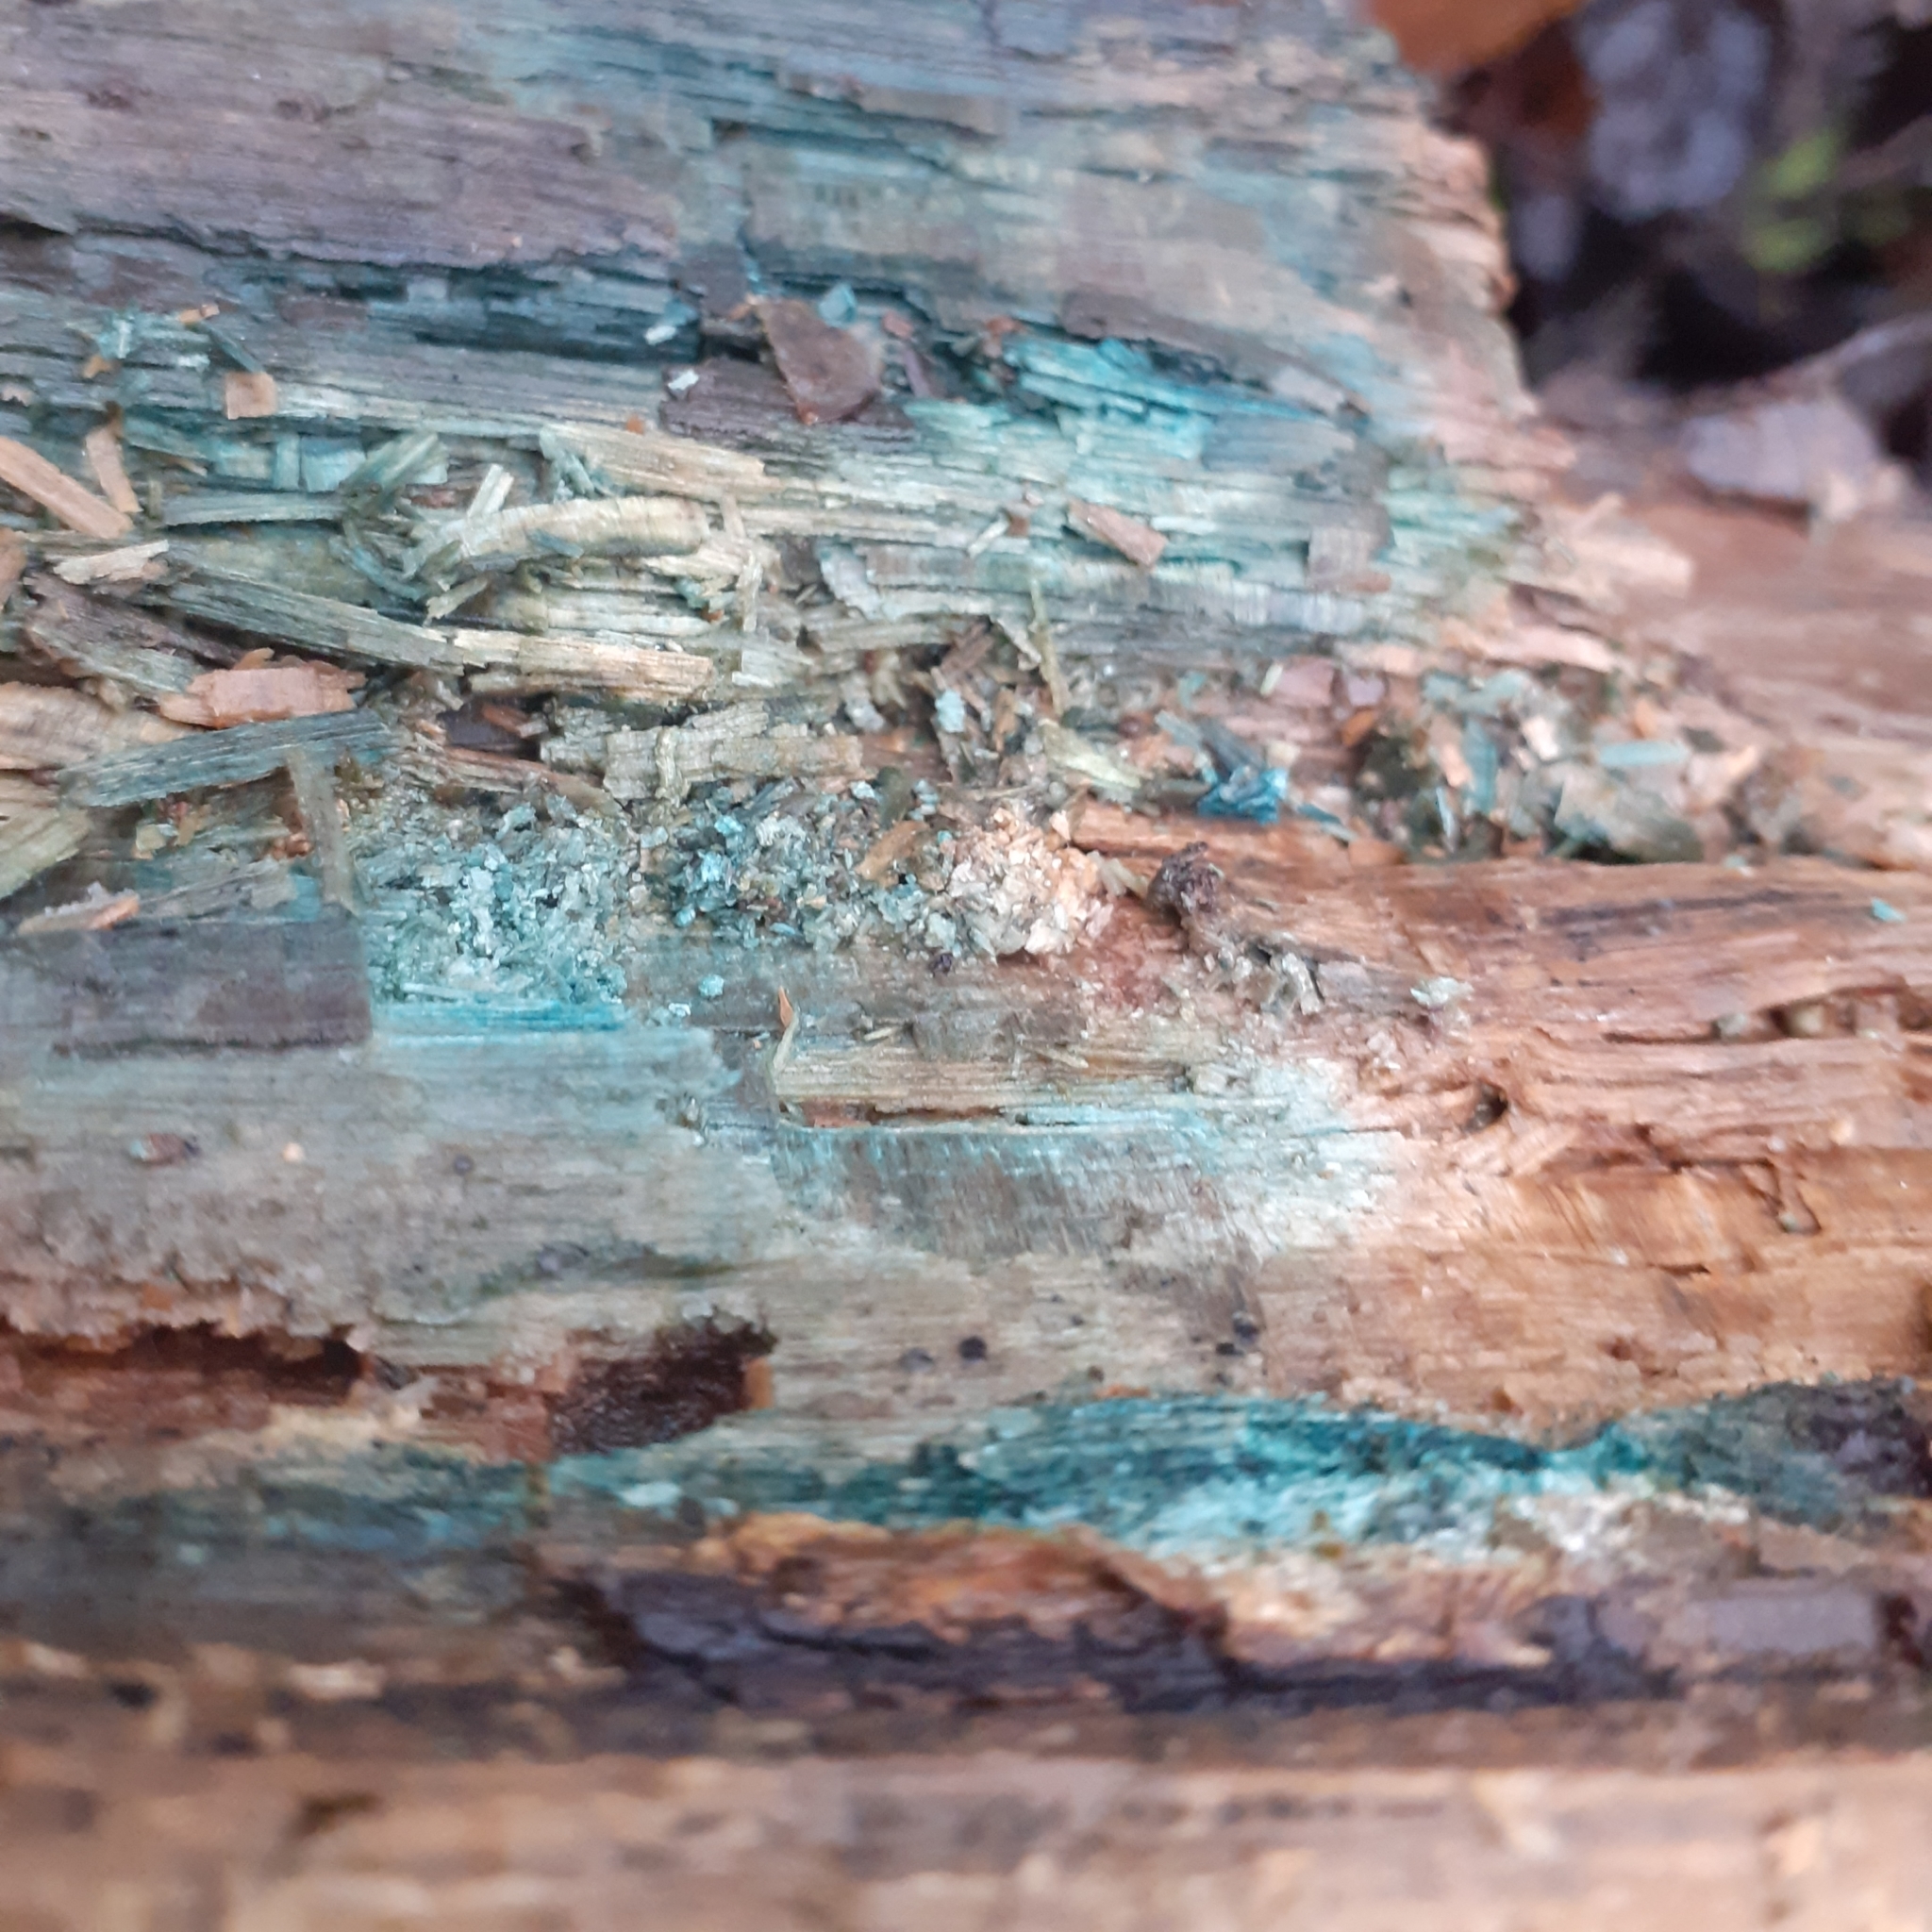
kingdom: Fungi
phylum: Ascomycota
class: Leotiomycetes
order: Helotiales
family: Chlorociboriaceae
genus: Chlorociboria
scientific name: Chlorociboria
